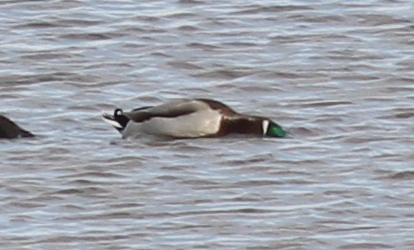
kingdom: Animalia
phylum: Chordata
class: Aves
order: Anseriformes
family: Anatidae
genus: Anas
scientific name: Anas platyrhynchos
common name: Mallard
